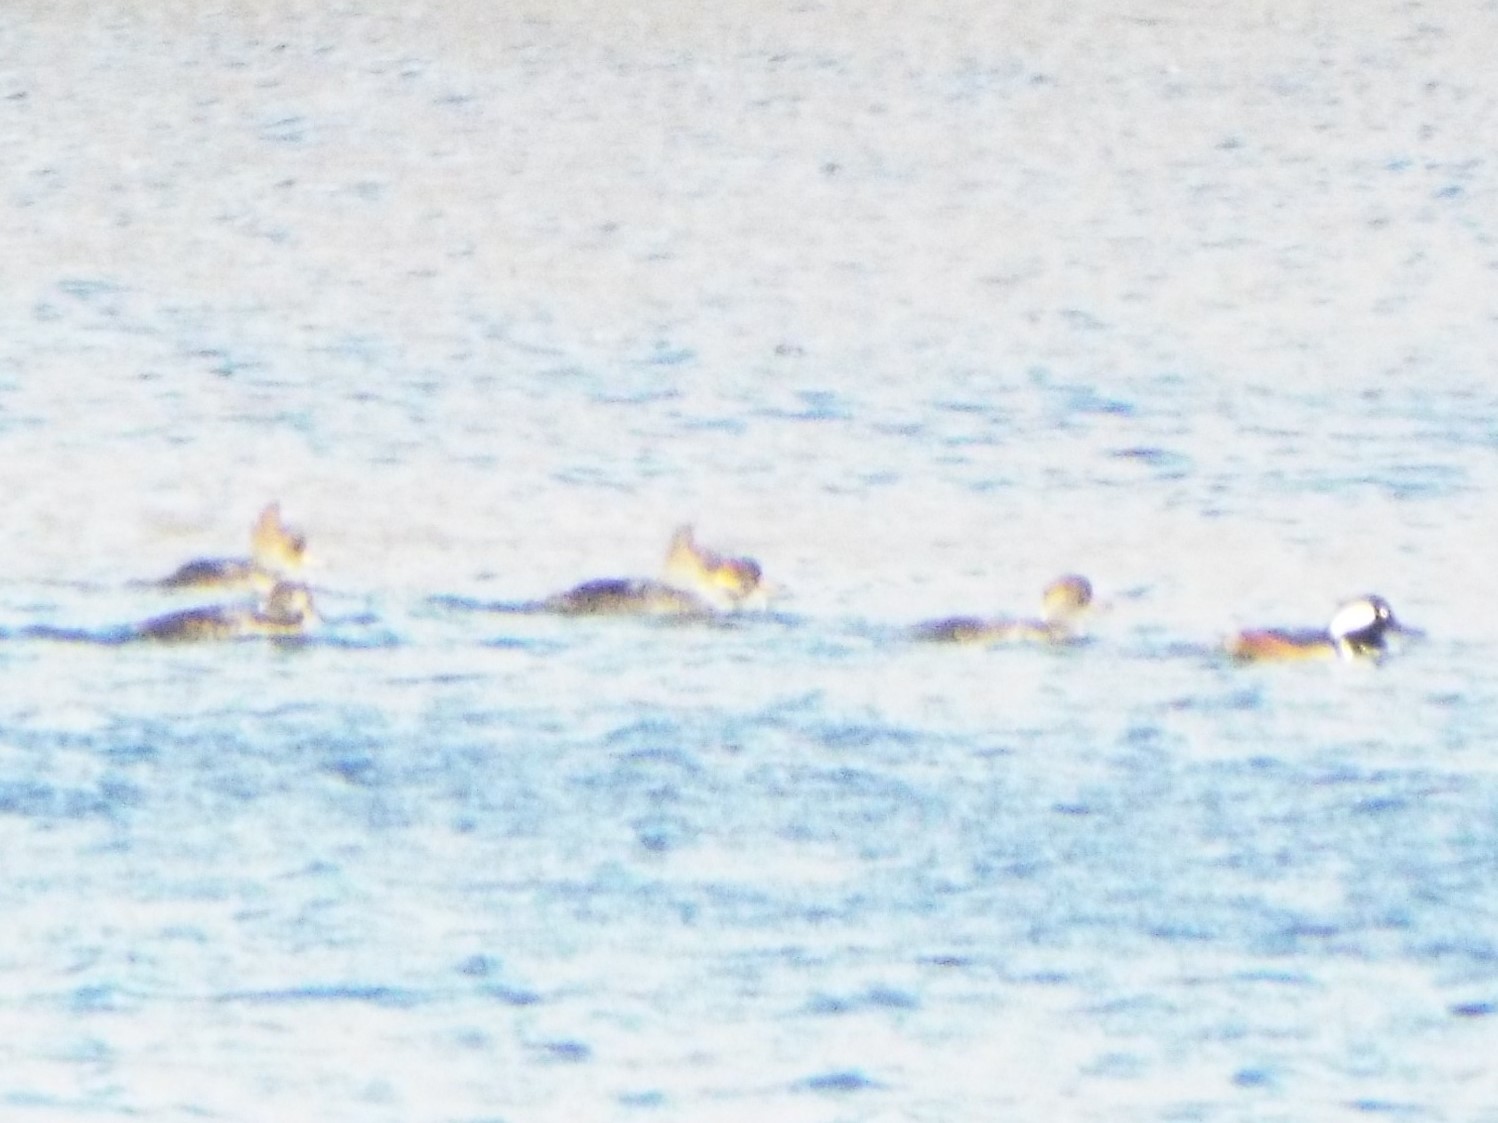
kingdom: Animalia
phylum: Chordata
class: Aves
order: Anseriformes
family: Anatidae
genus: Lophodytes
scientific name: Lophodytes cucullatus
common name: Hooded merganser
